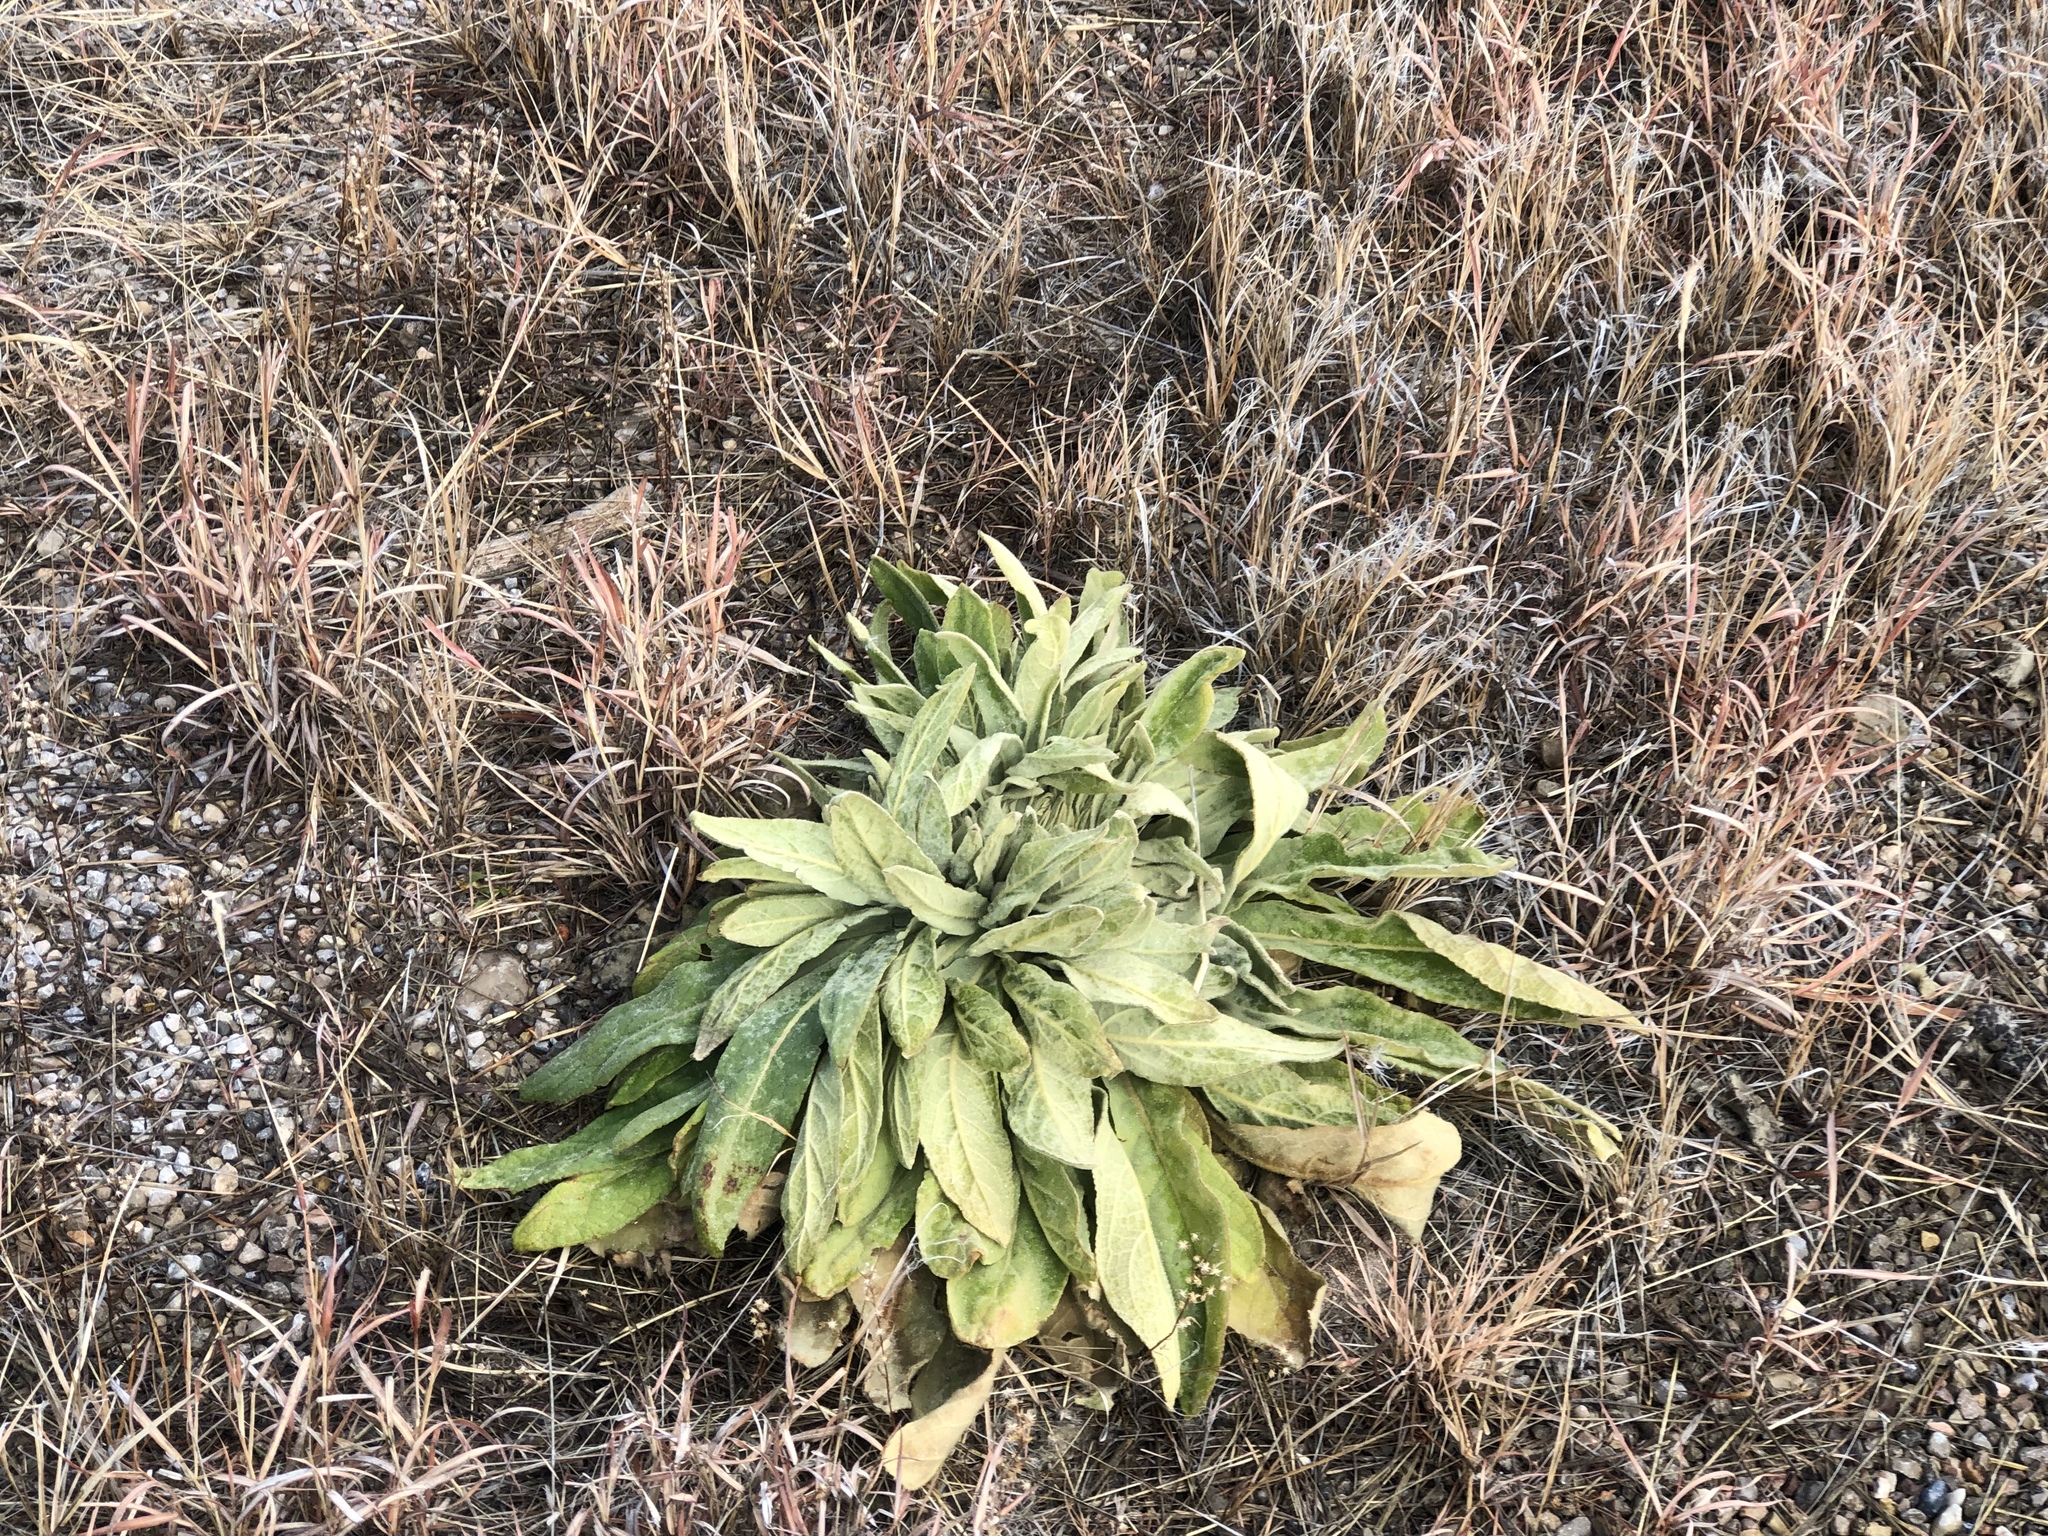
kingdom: Plantae
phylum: Tracheophyta
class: Magnoliopsida
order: Myrtales
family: Onagraceae
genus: Oenothera
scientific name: Oenothera elata
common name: Hooker's evening-primrose
